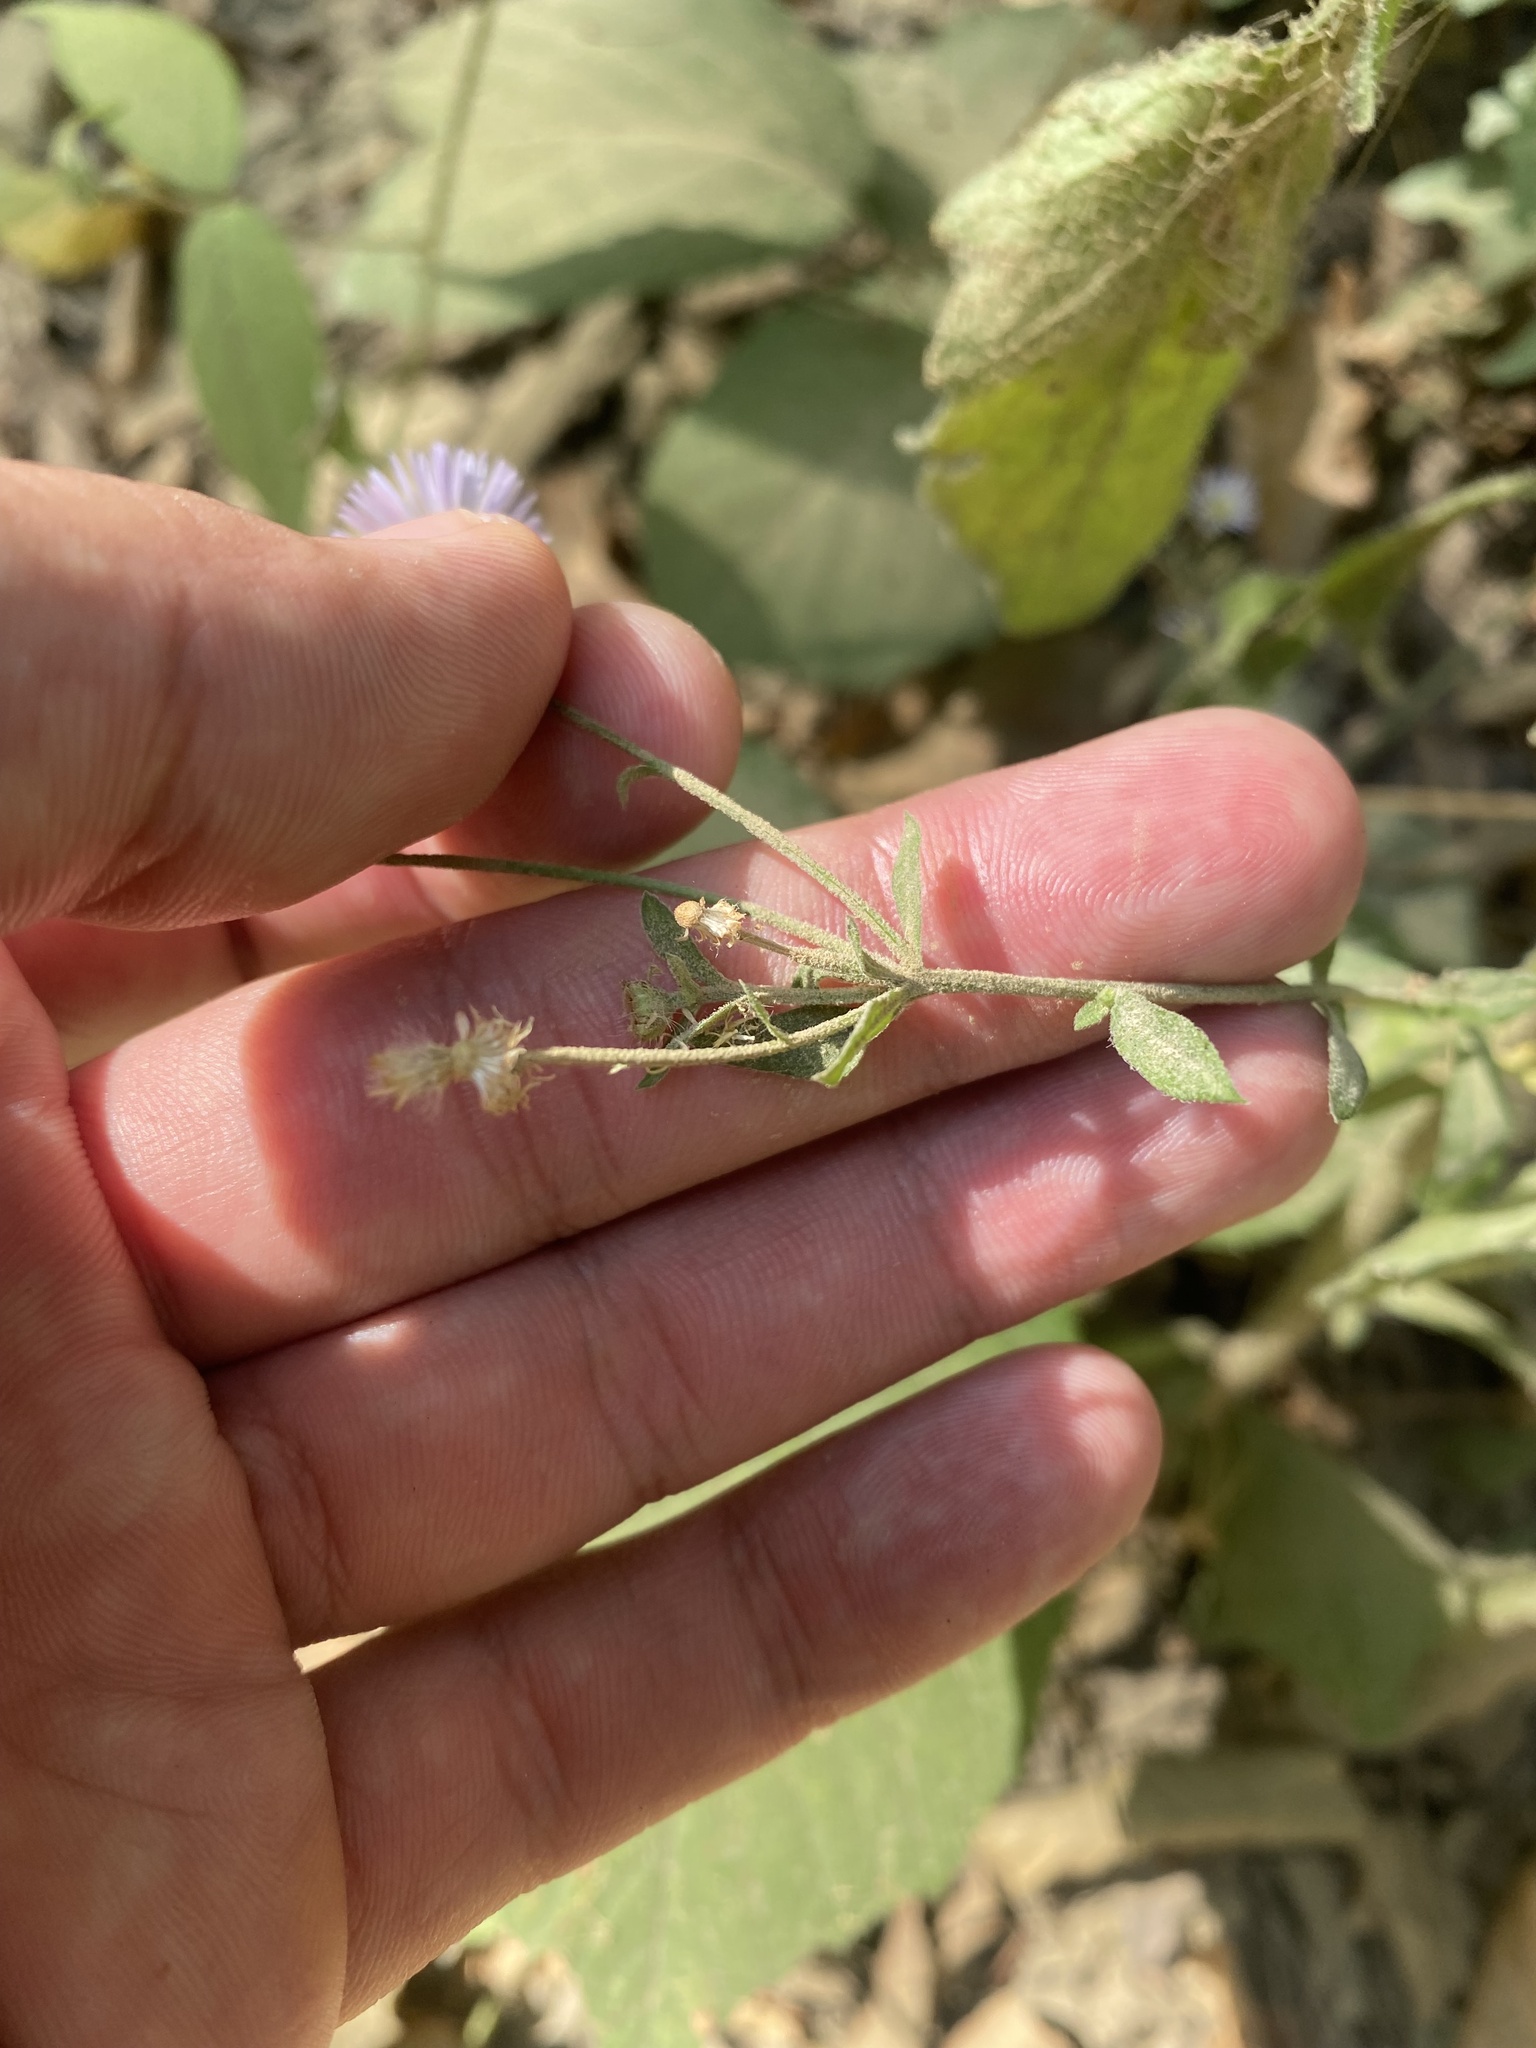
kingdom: Plantae
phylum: Tracheophyta
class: Magnoliopsida
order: Asterales
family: Asteraceae
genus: Erigeron
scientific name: Erigeron annuus
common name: Tall fleabane
